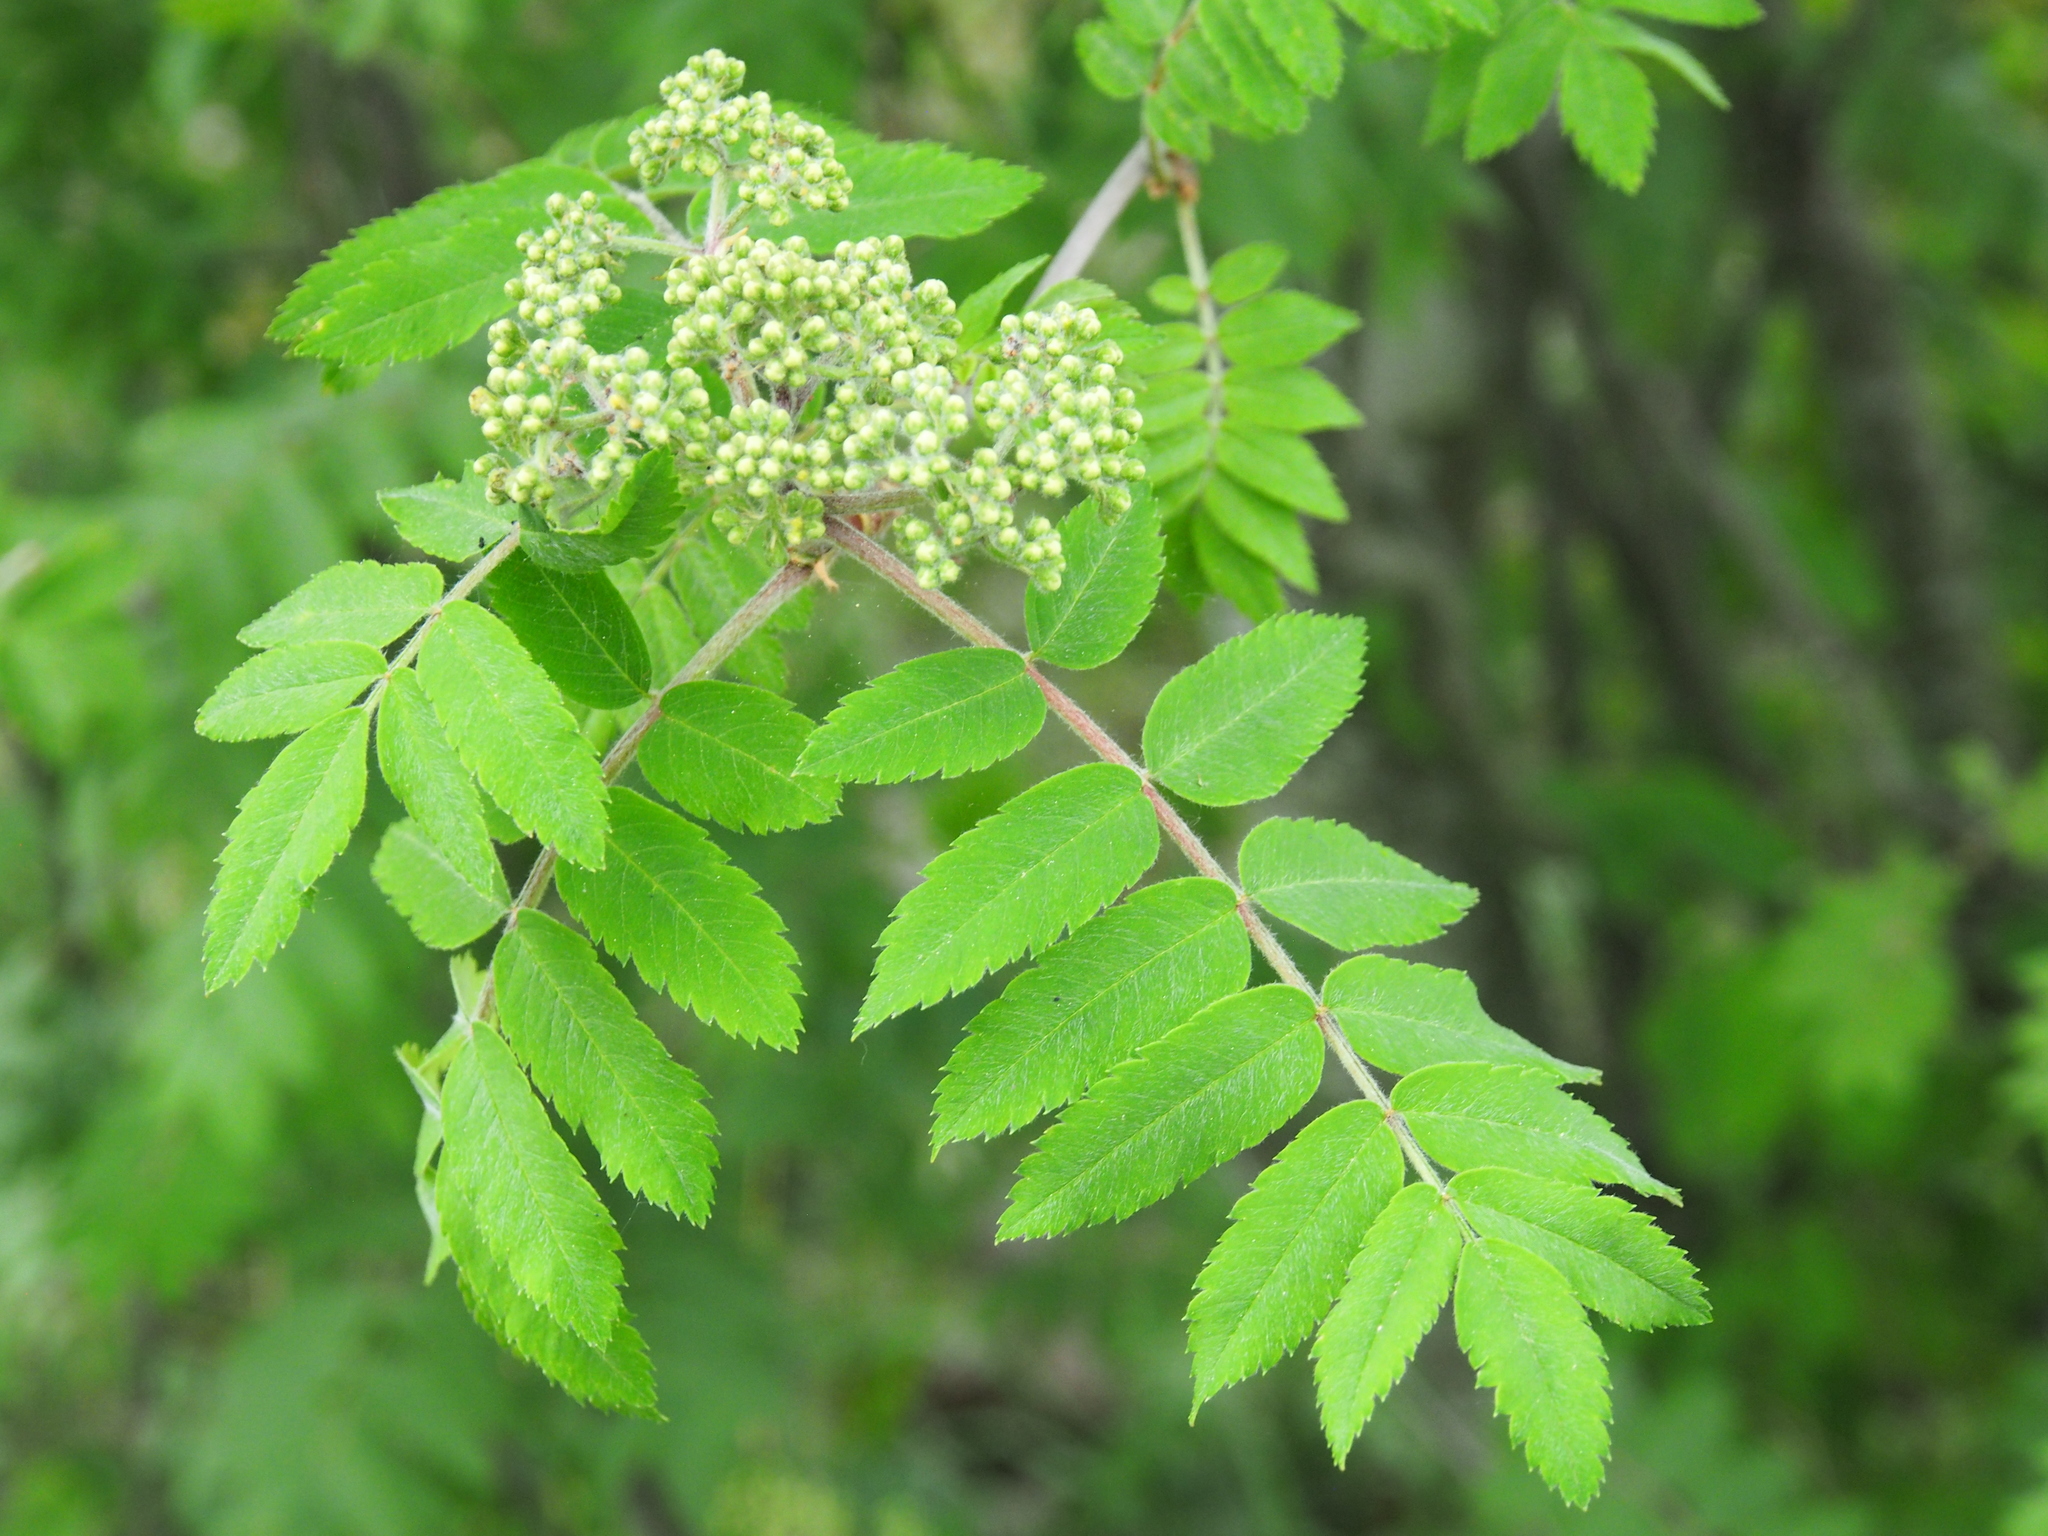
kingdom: Plantae
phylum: Tracheophyta
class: Magnoliopsida
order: Rosales
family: Rosaceae
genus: Sorbus
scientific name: Sorbus aucuparia
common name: Rowan
